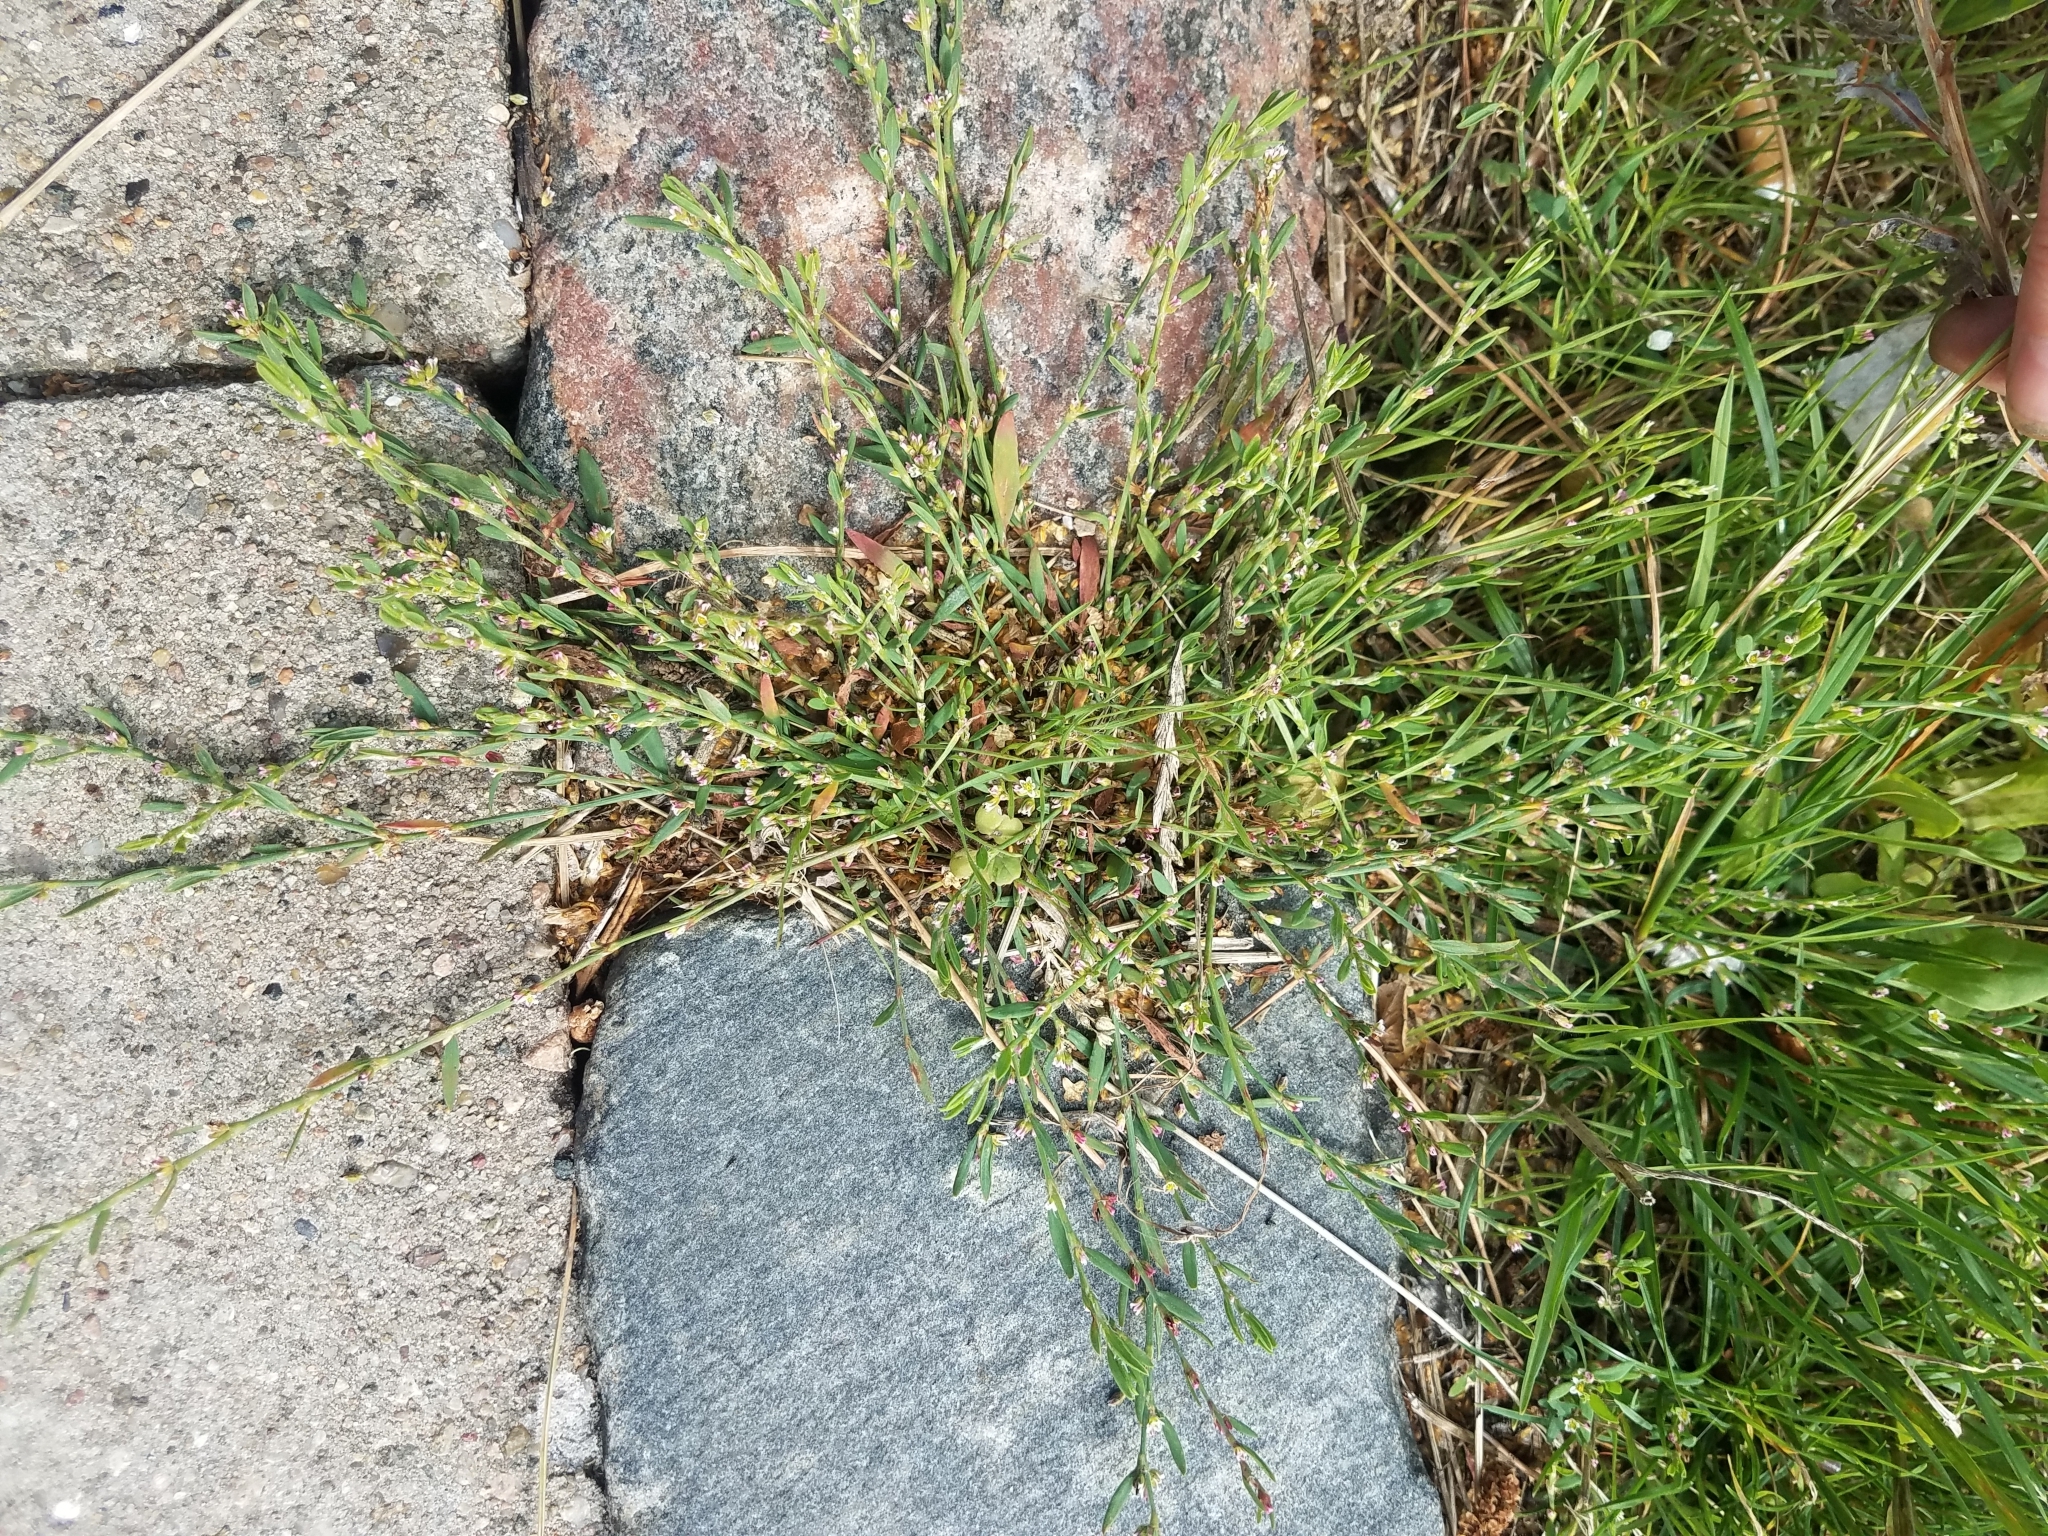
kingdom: Plantae
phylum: Tracheophyta
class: Magnoliopsida
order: Caryophyllales
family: Polygonaceae
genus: Polygonum
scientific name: Polygonum aviculare
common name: Prostrate knotweed
